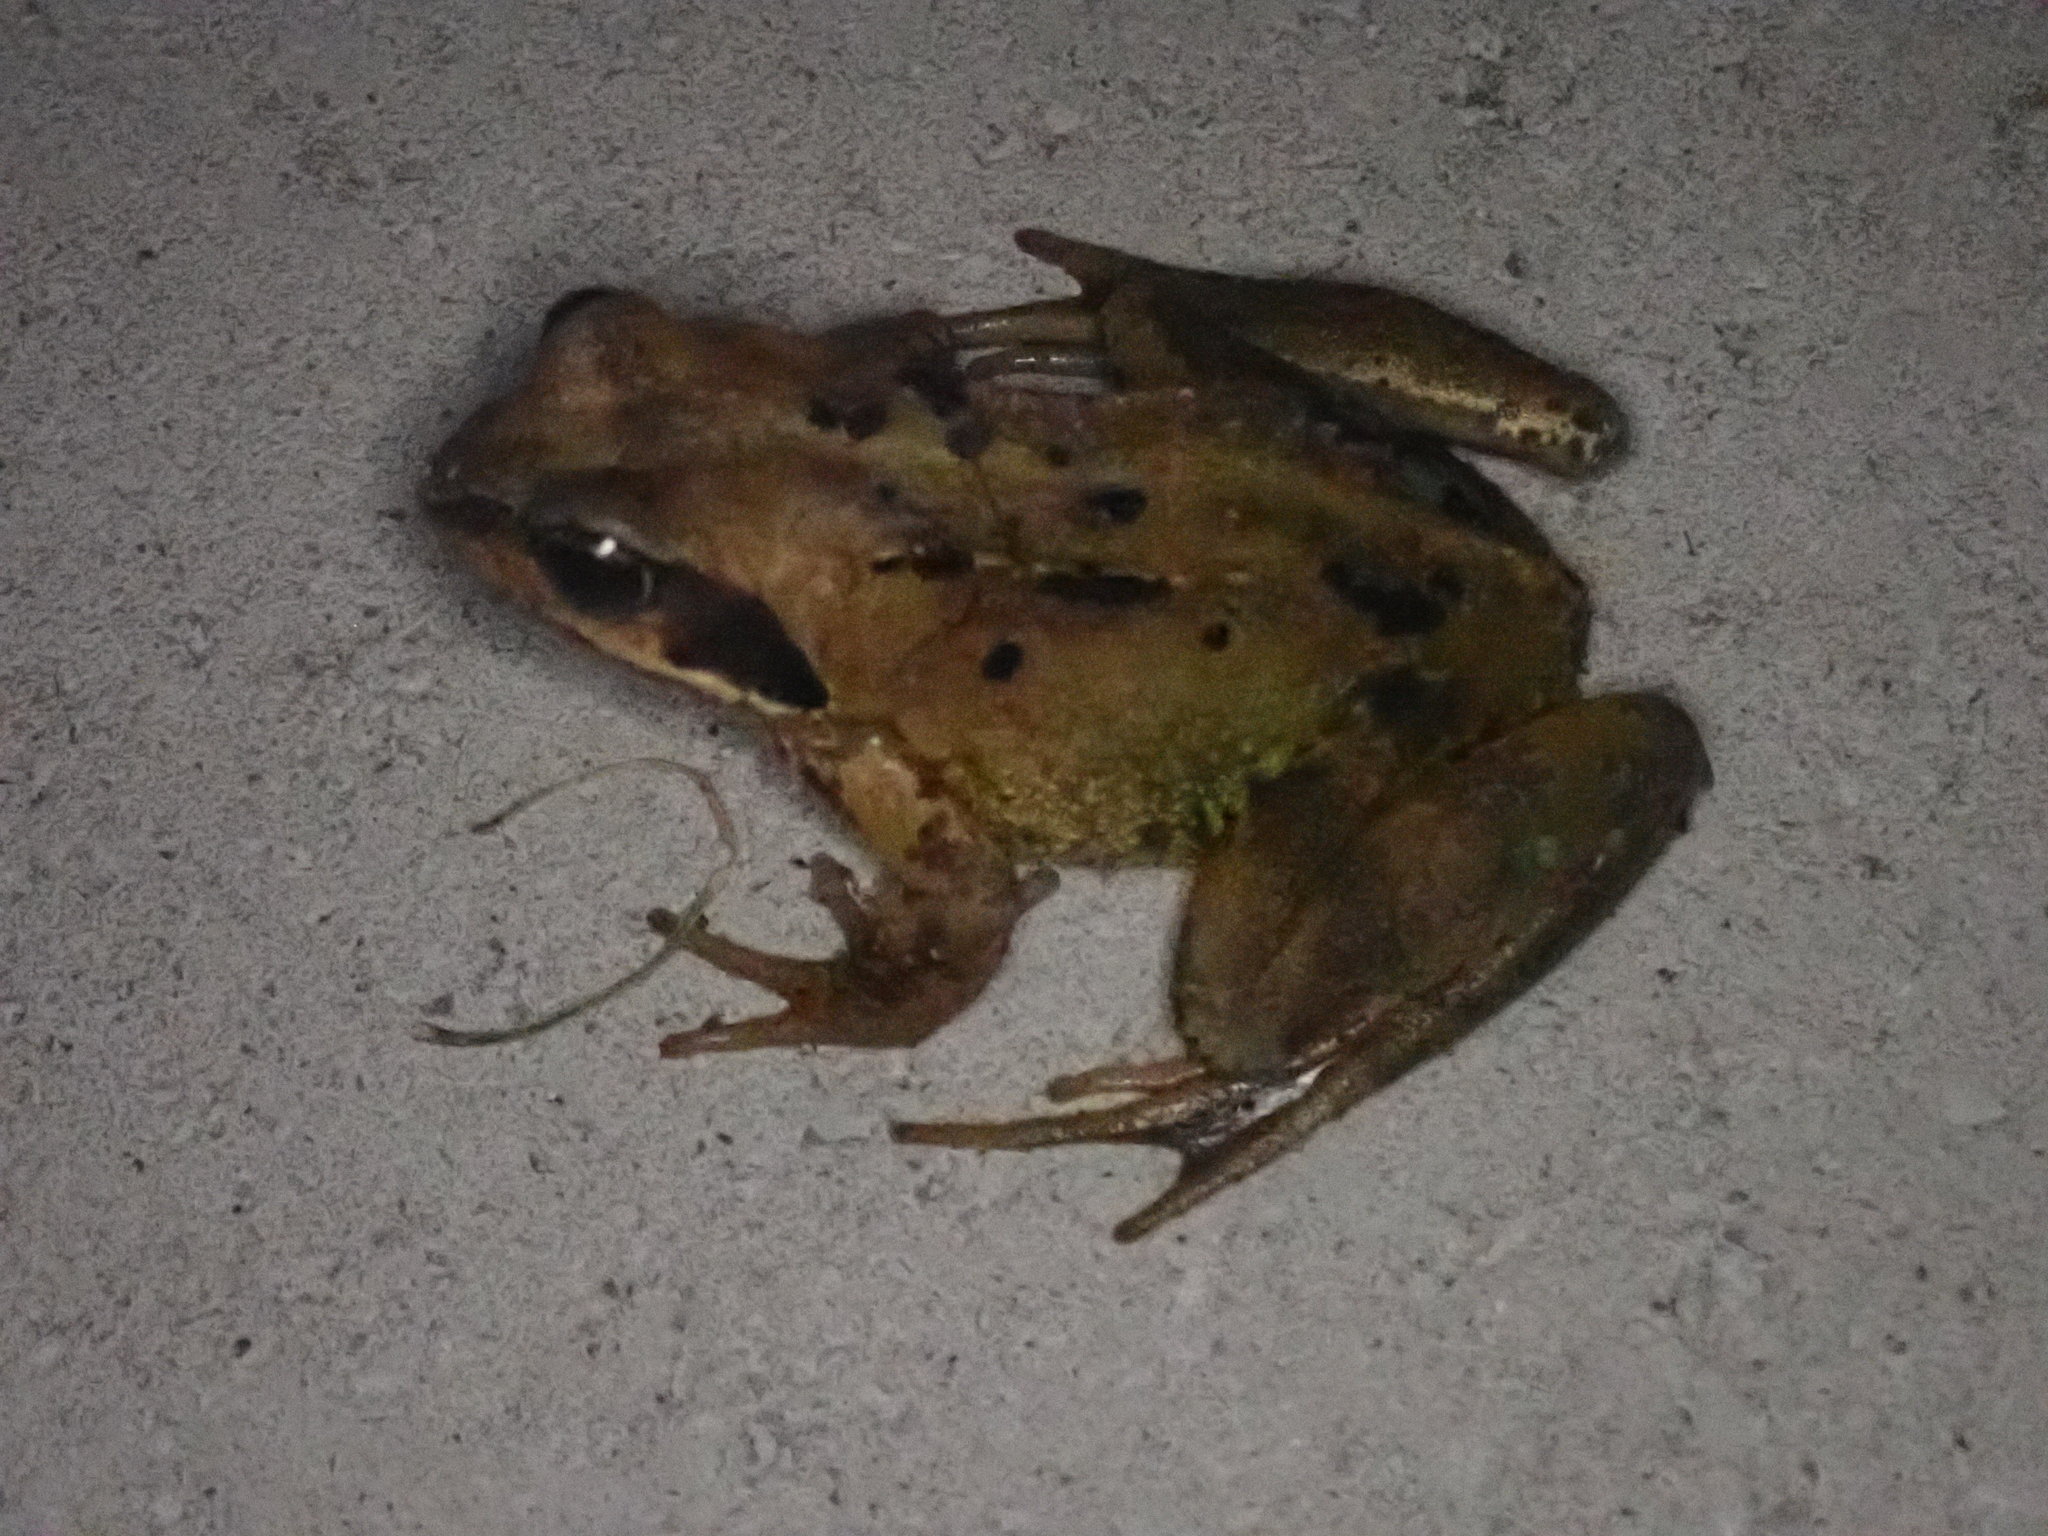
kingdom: Animalia
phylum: Chordata
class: Amphibia
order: Anura
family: Ranidae
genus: Rana
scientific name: Rana temporaria
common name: Common frog
